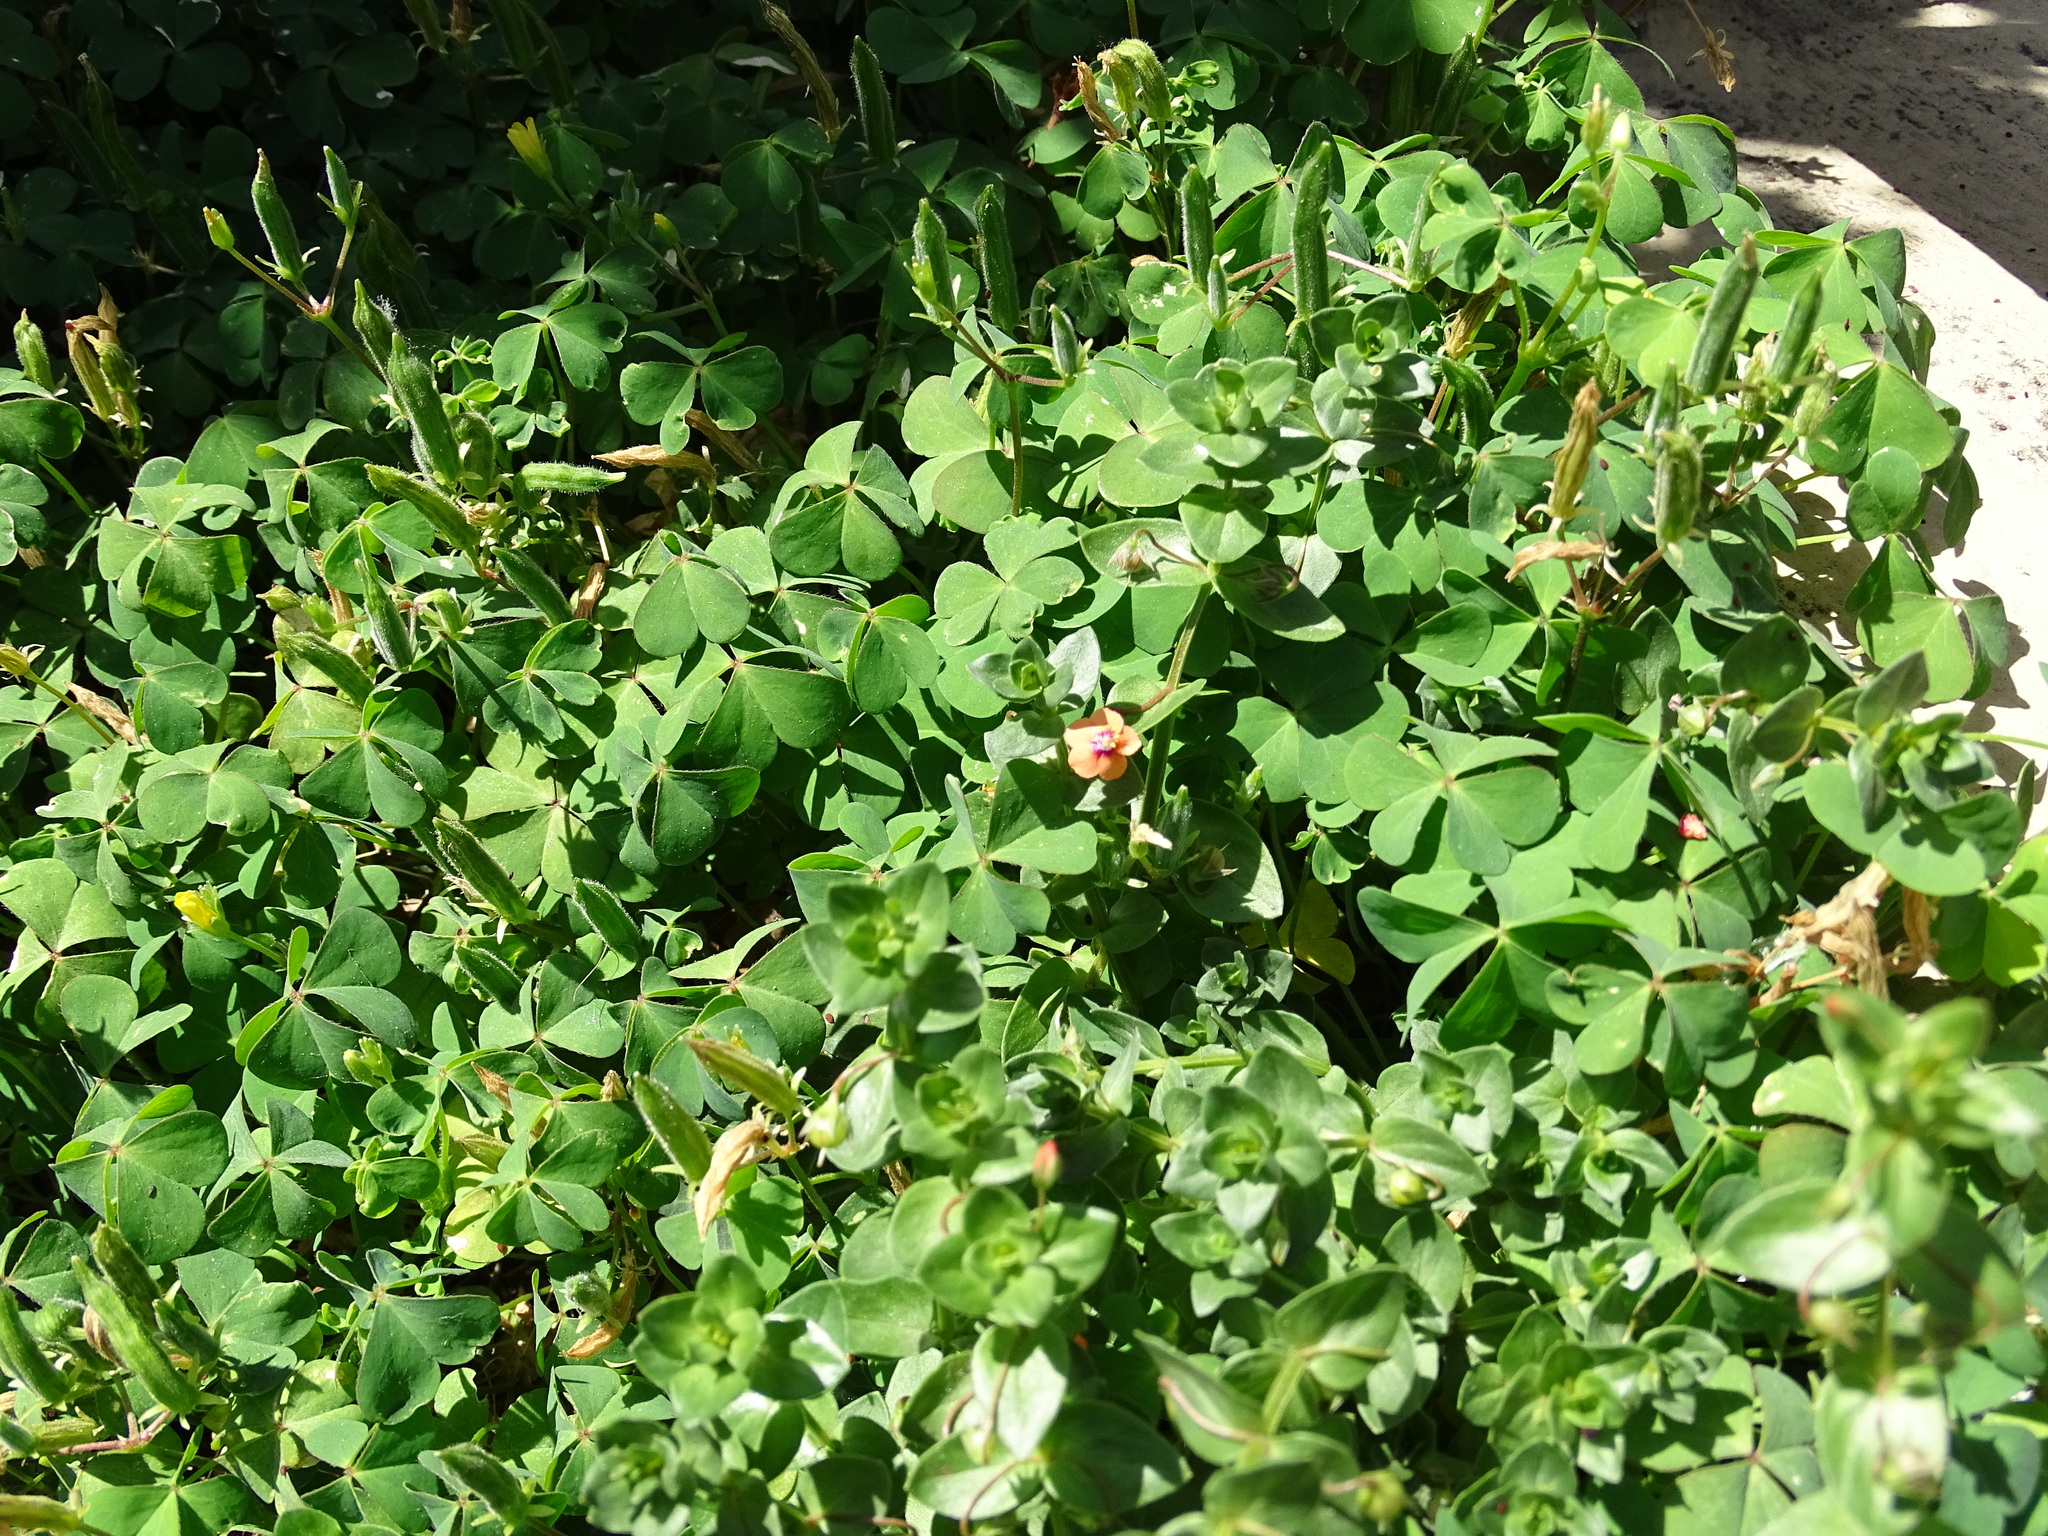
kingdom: Plantae
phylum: Tracheophyta
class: Magnoliopsida
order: Ericales
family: Primulaceae
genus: Lysimachia
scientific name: Lysimachia arvensis
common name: Scarlet pimpernel
